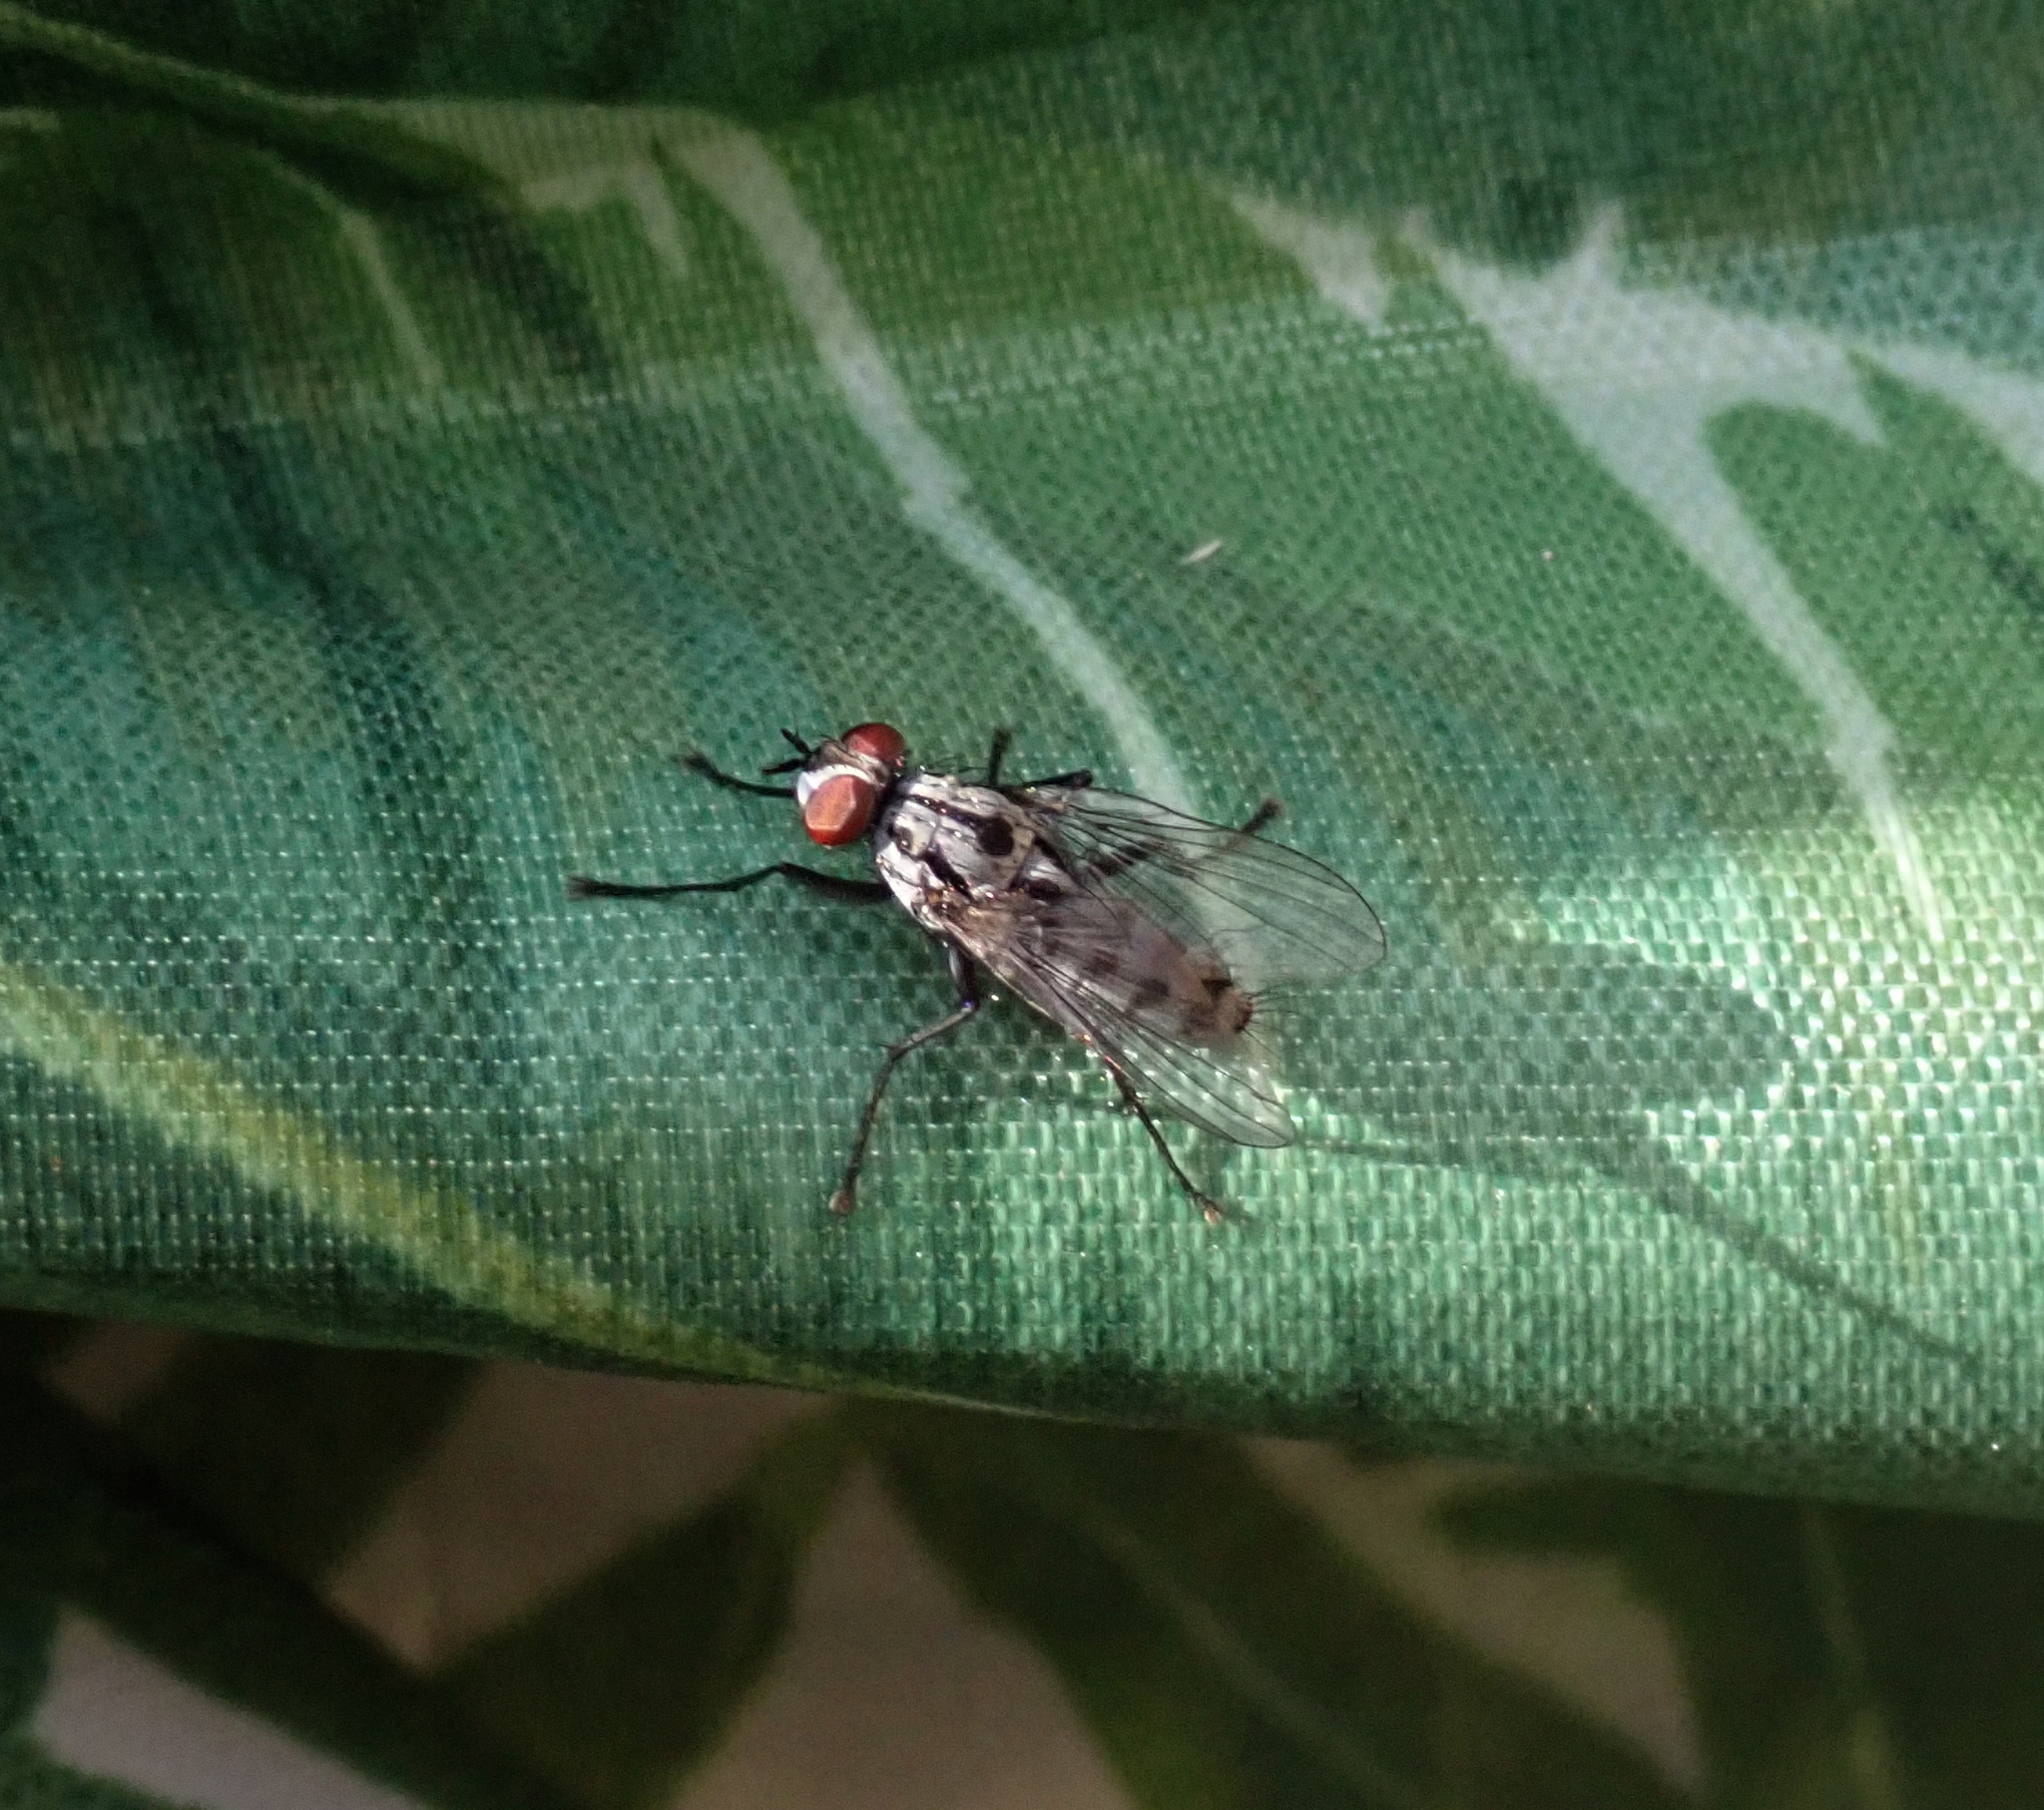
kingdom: Animalia
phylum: Arthropoda
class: Insecta
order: Diptera
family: Anthomyiidae
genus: Eustalomyia
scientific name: Eustalomyia hilaris
